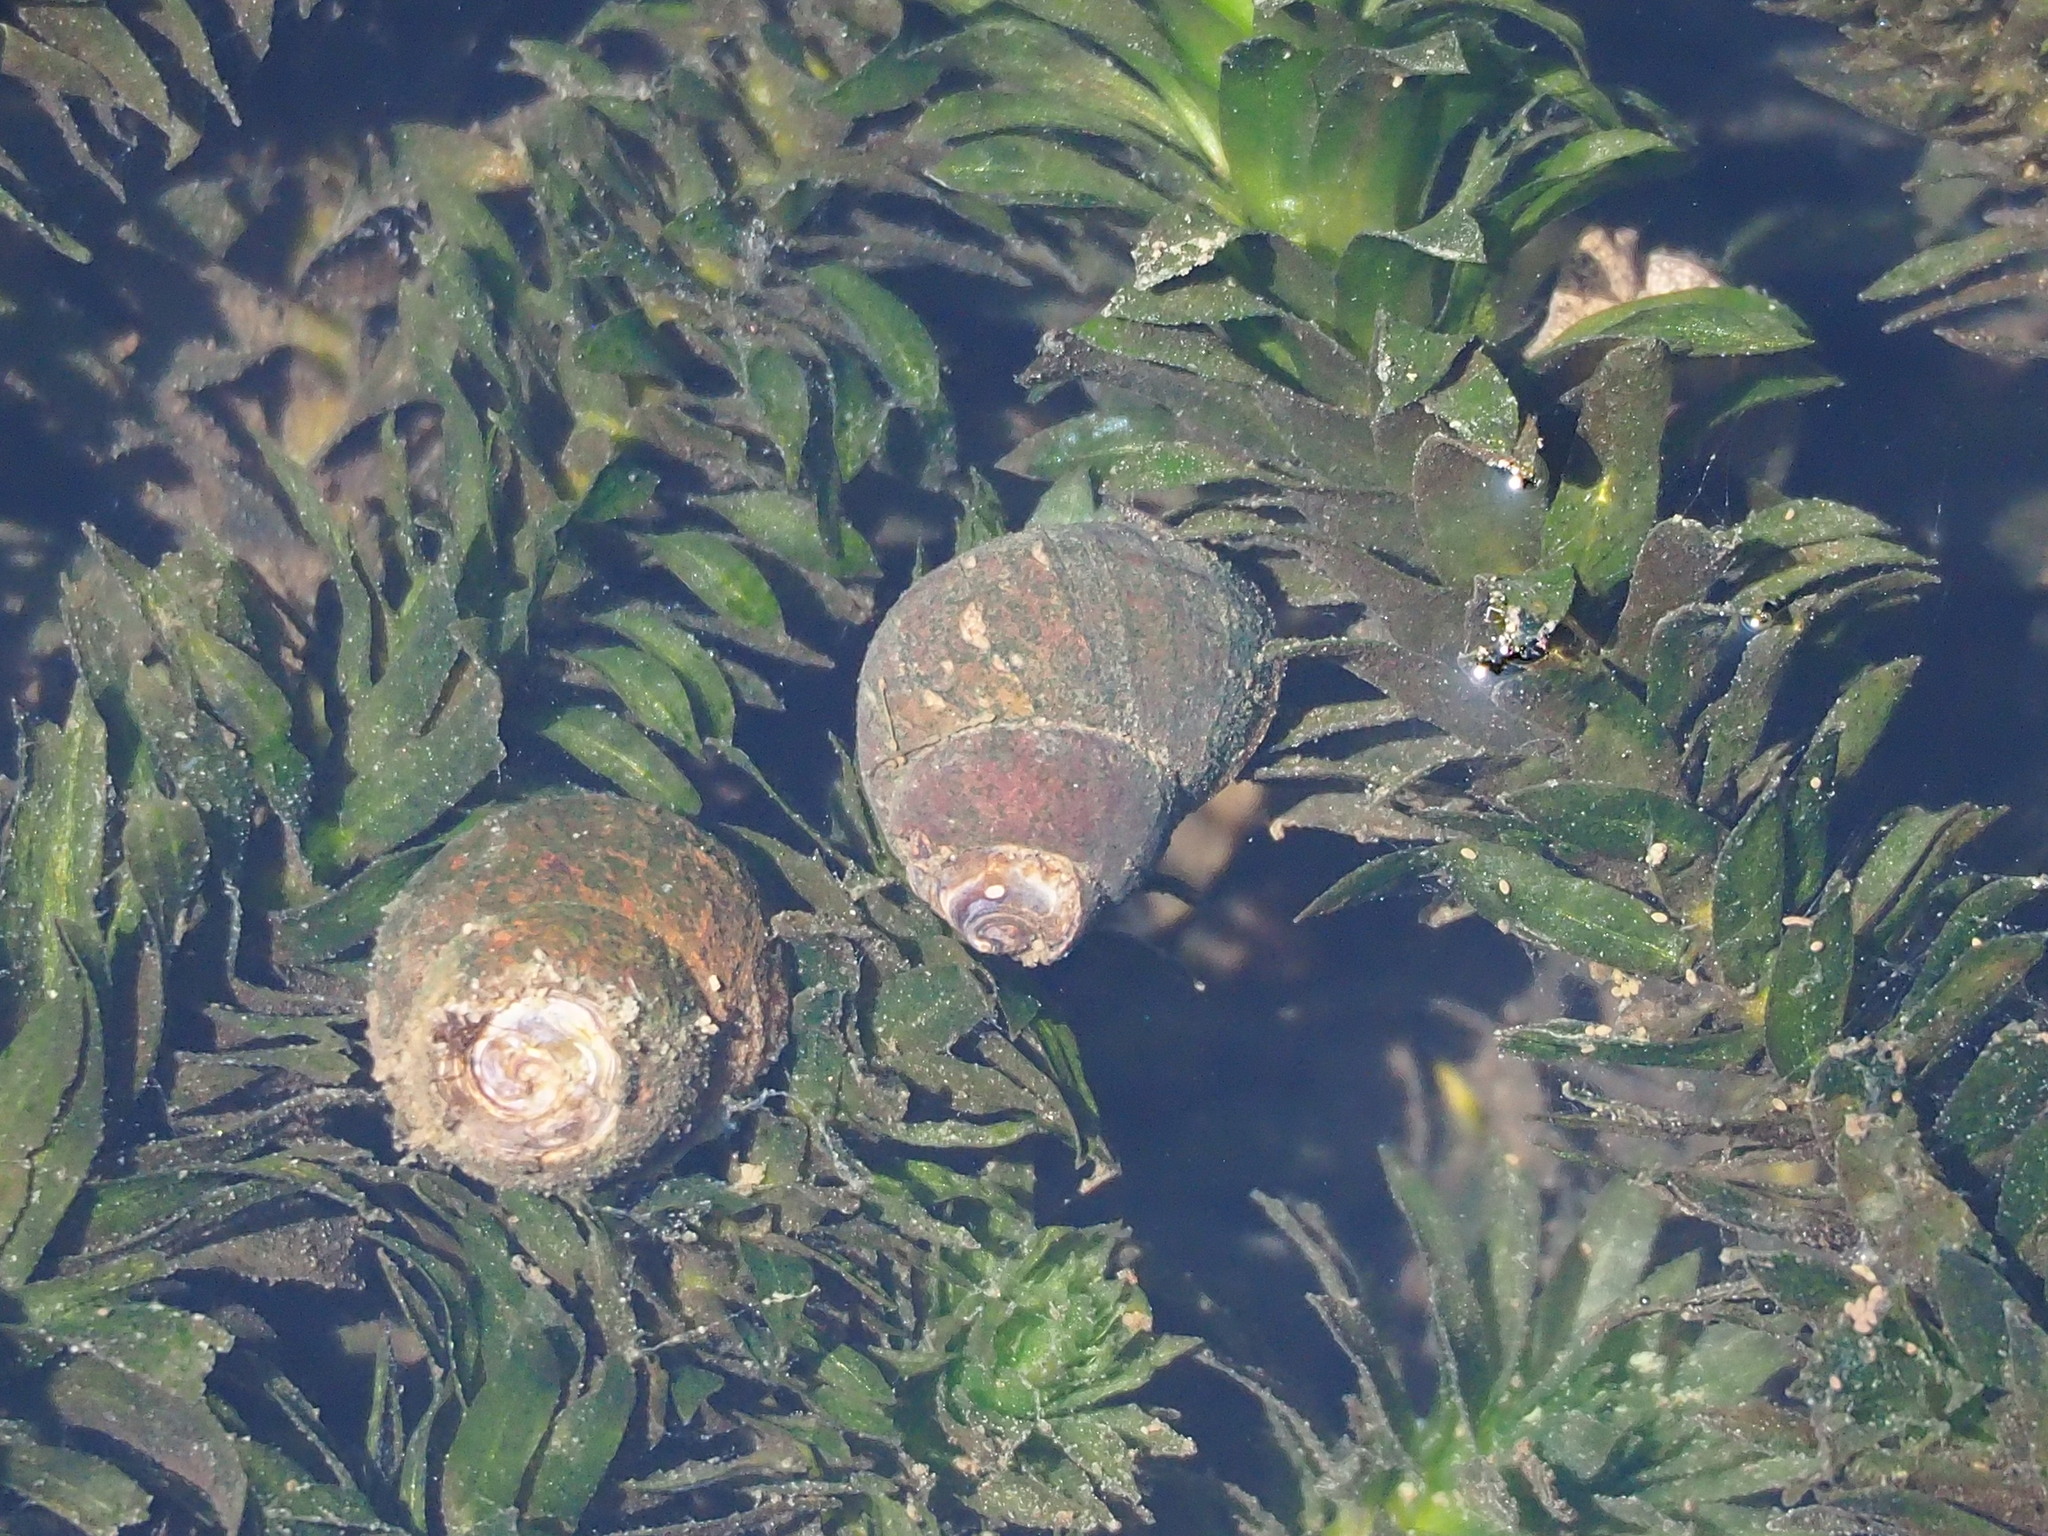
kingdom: Animalia
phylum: Mollusca
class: Gastropoda
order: Architaenioglossa
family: Viviparidae
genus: Sinotaia
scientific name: Sinotaia quadrata
